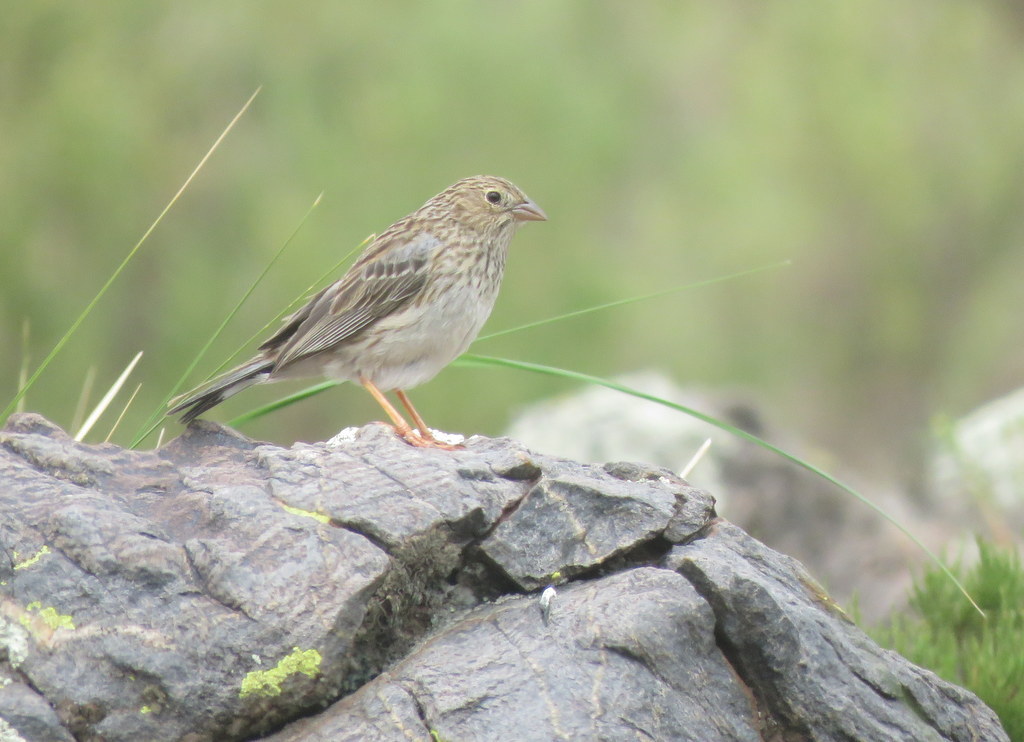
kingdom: Animalia
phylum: Chordata
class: Aves
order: Passeriformes
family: Thraupidae
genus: Porphyrospiza
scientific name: Porphyrospiza alaudina
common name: Band-tailed sierra finch
